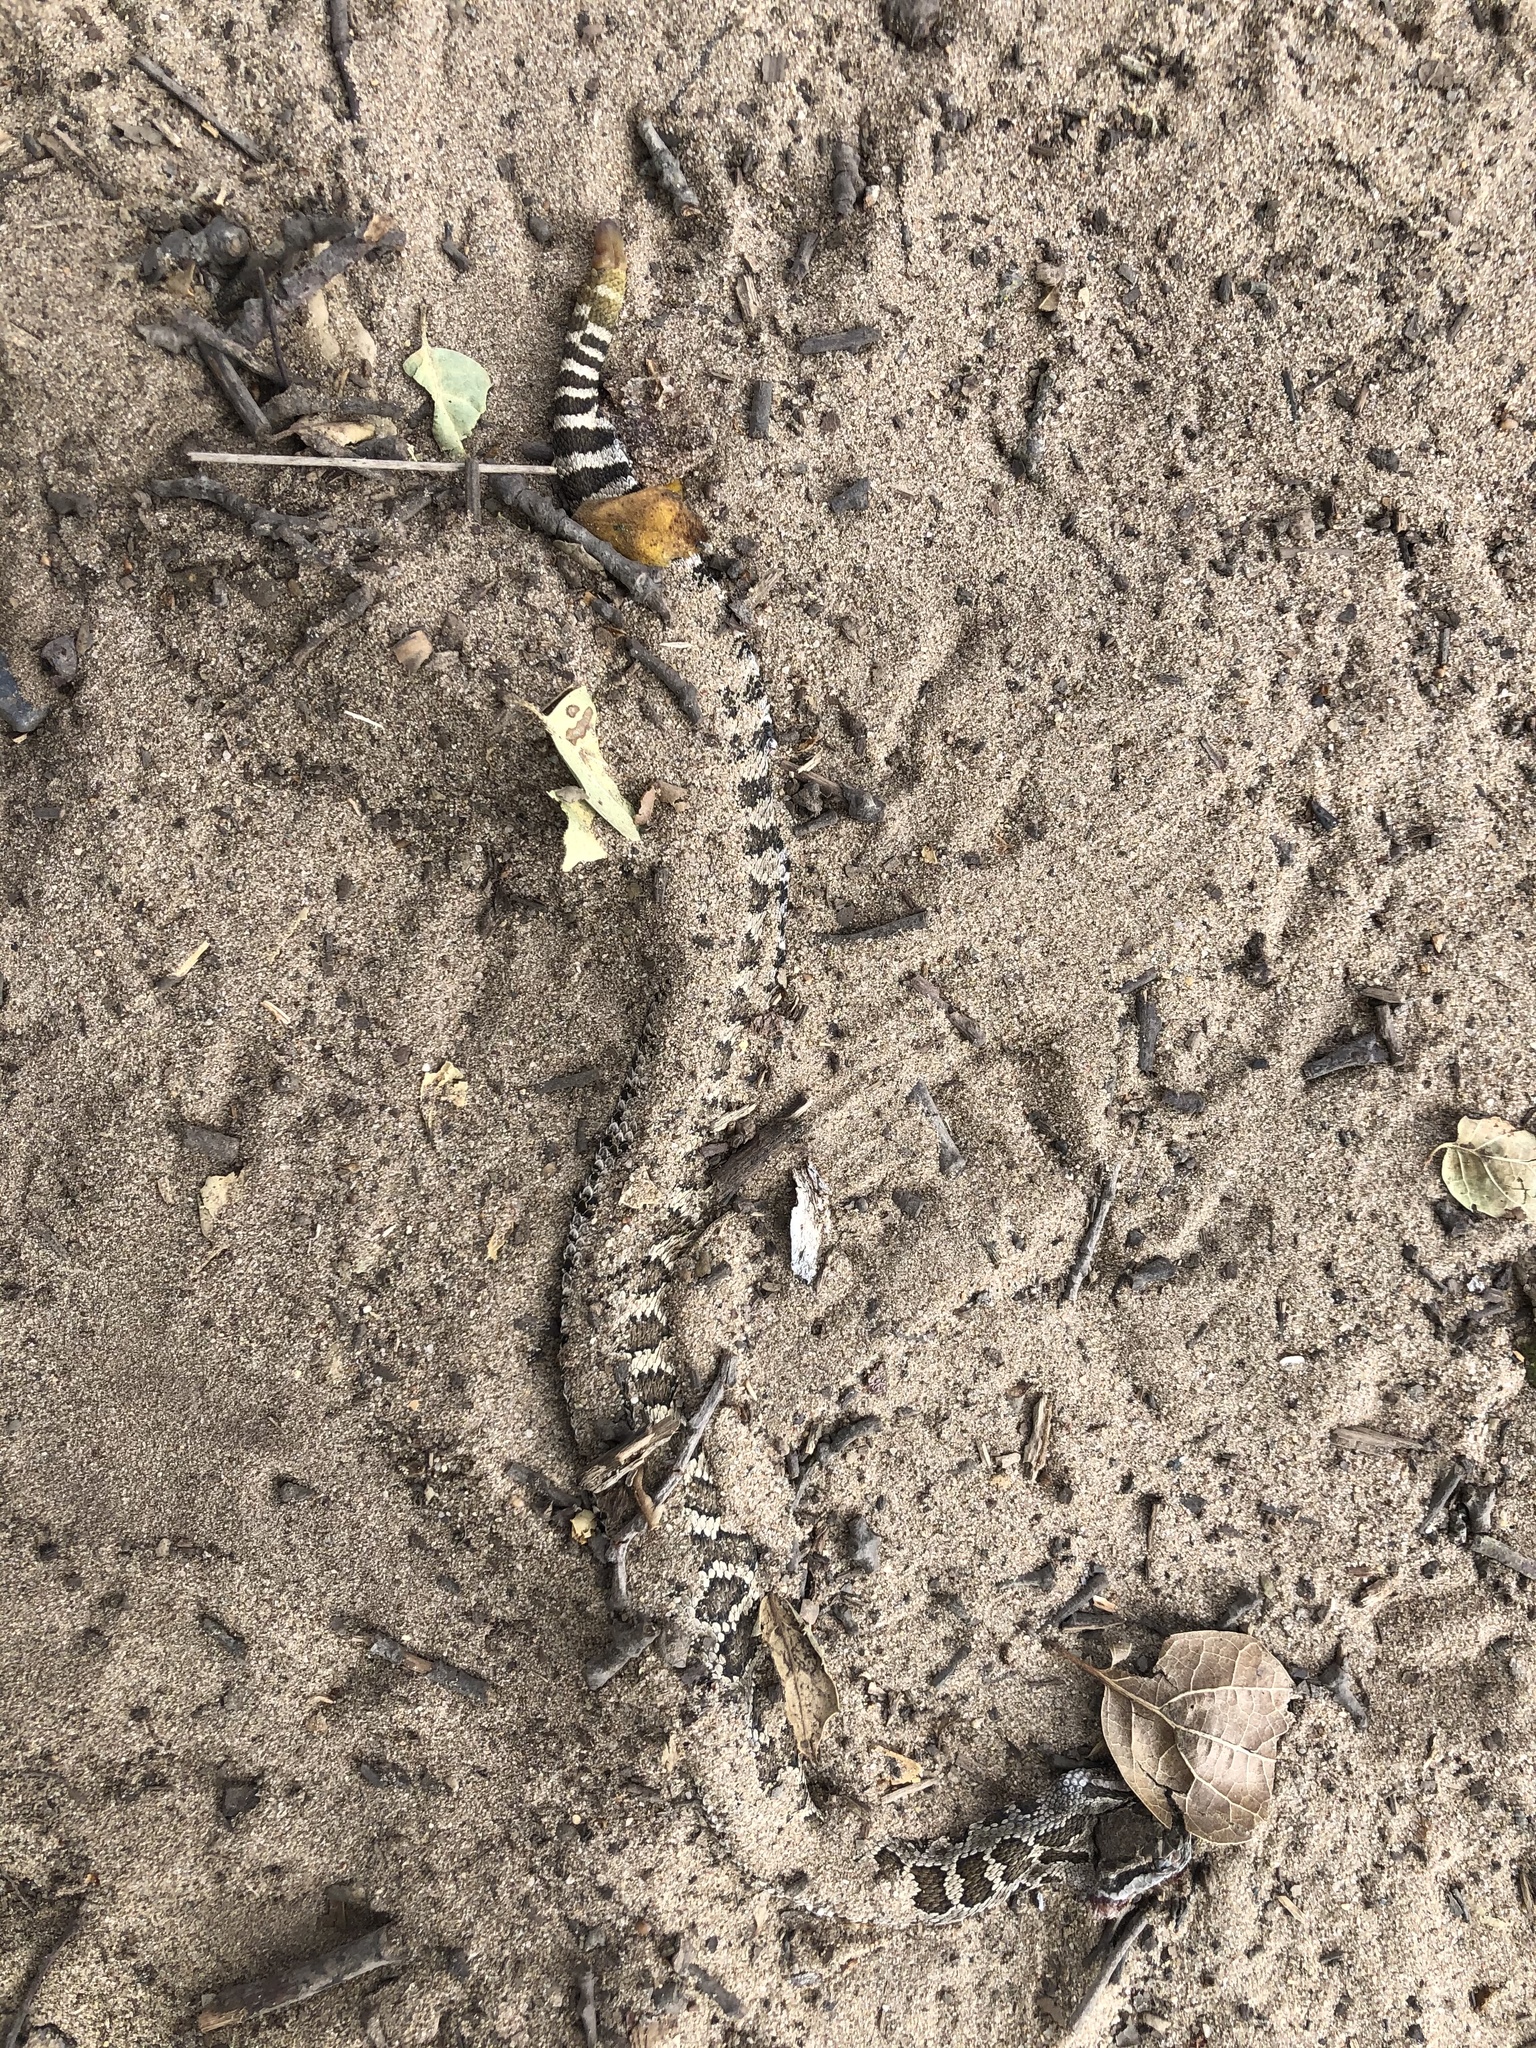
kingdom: Animalia
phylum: Chordata
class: Squamata
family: Viperidae
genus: Crotalus
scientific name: Crotalus oreganus
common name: Abyssus
